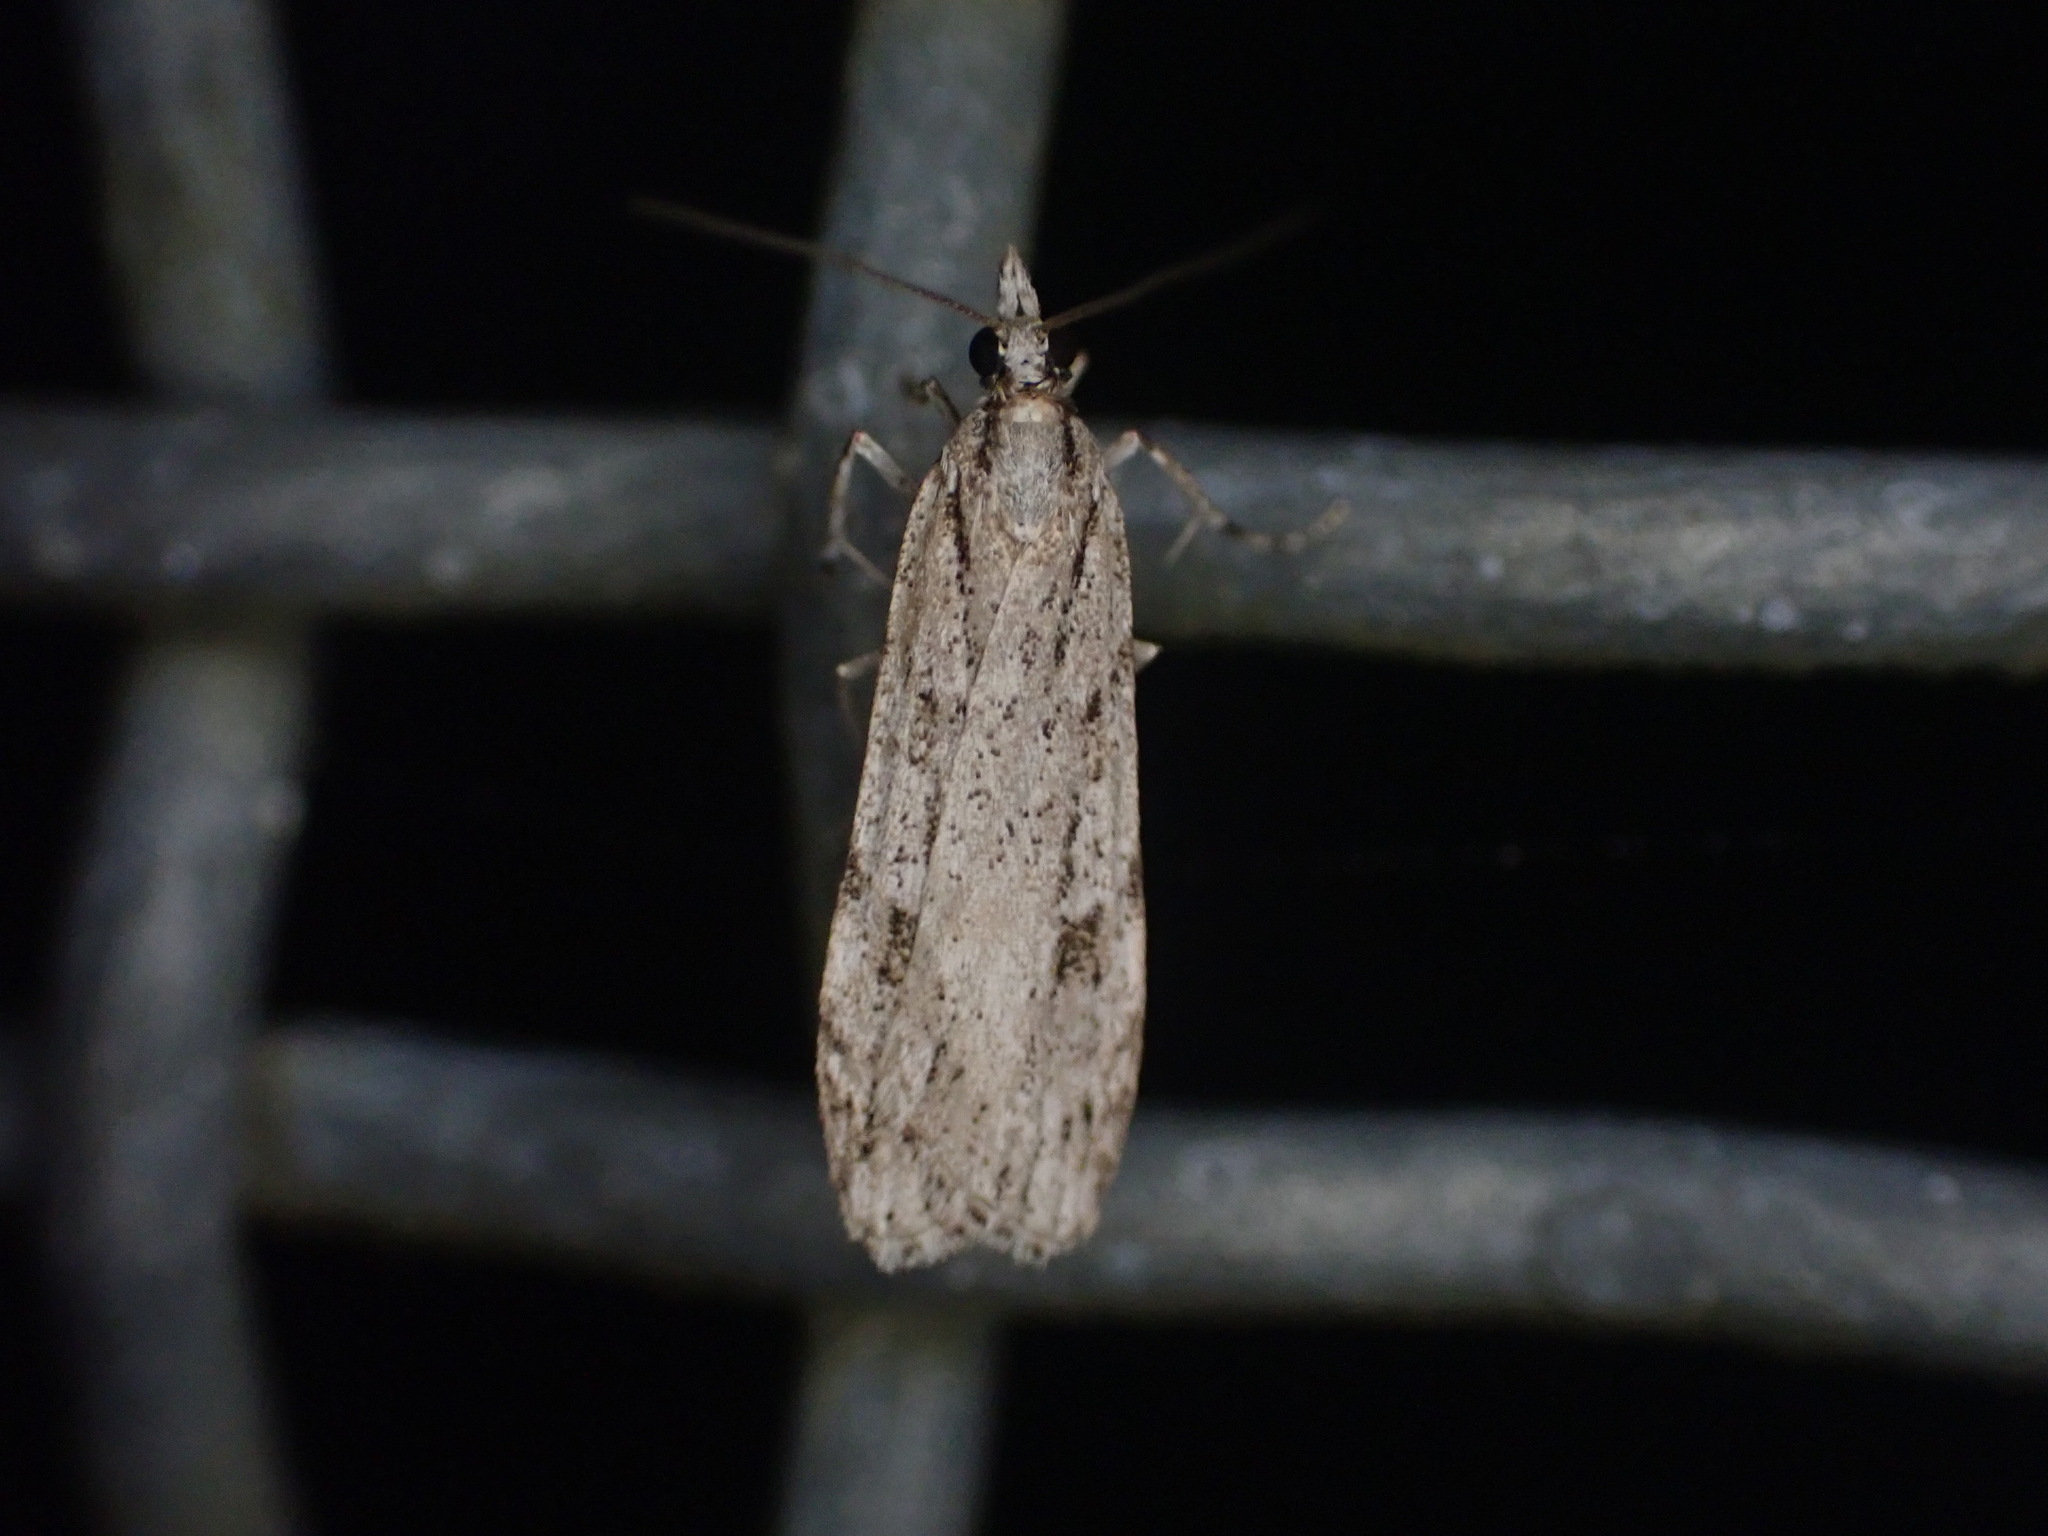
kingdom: Animalia
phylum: Arthropoda
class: Insecta
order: Lepidoptera
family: Crambidae
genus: Scoparia
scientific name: Scoparia chalicodes
